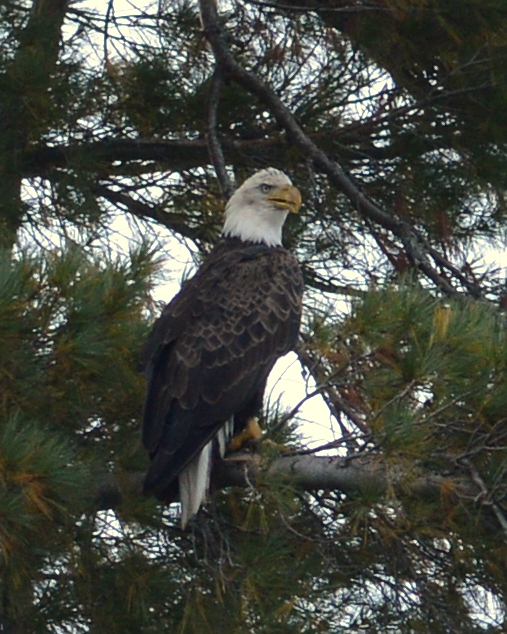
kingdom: Animalia
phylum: Chordata
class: Aves
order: Accipitriformes
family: Accipitridae
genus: Haliaeetus
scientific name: Haliaeetus leucocephalus
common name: Bald eagle
